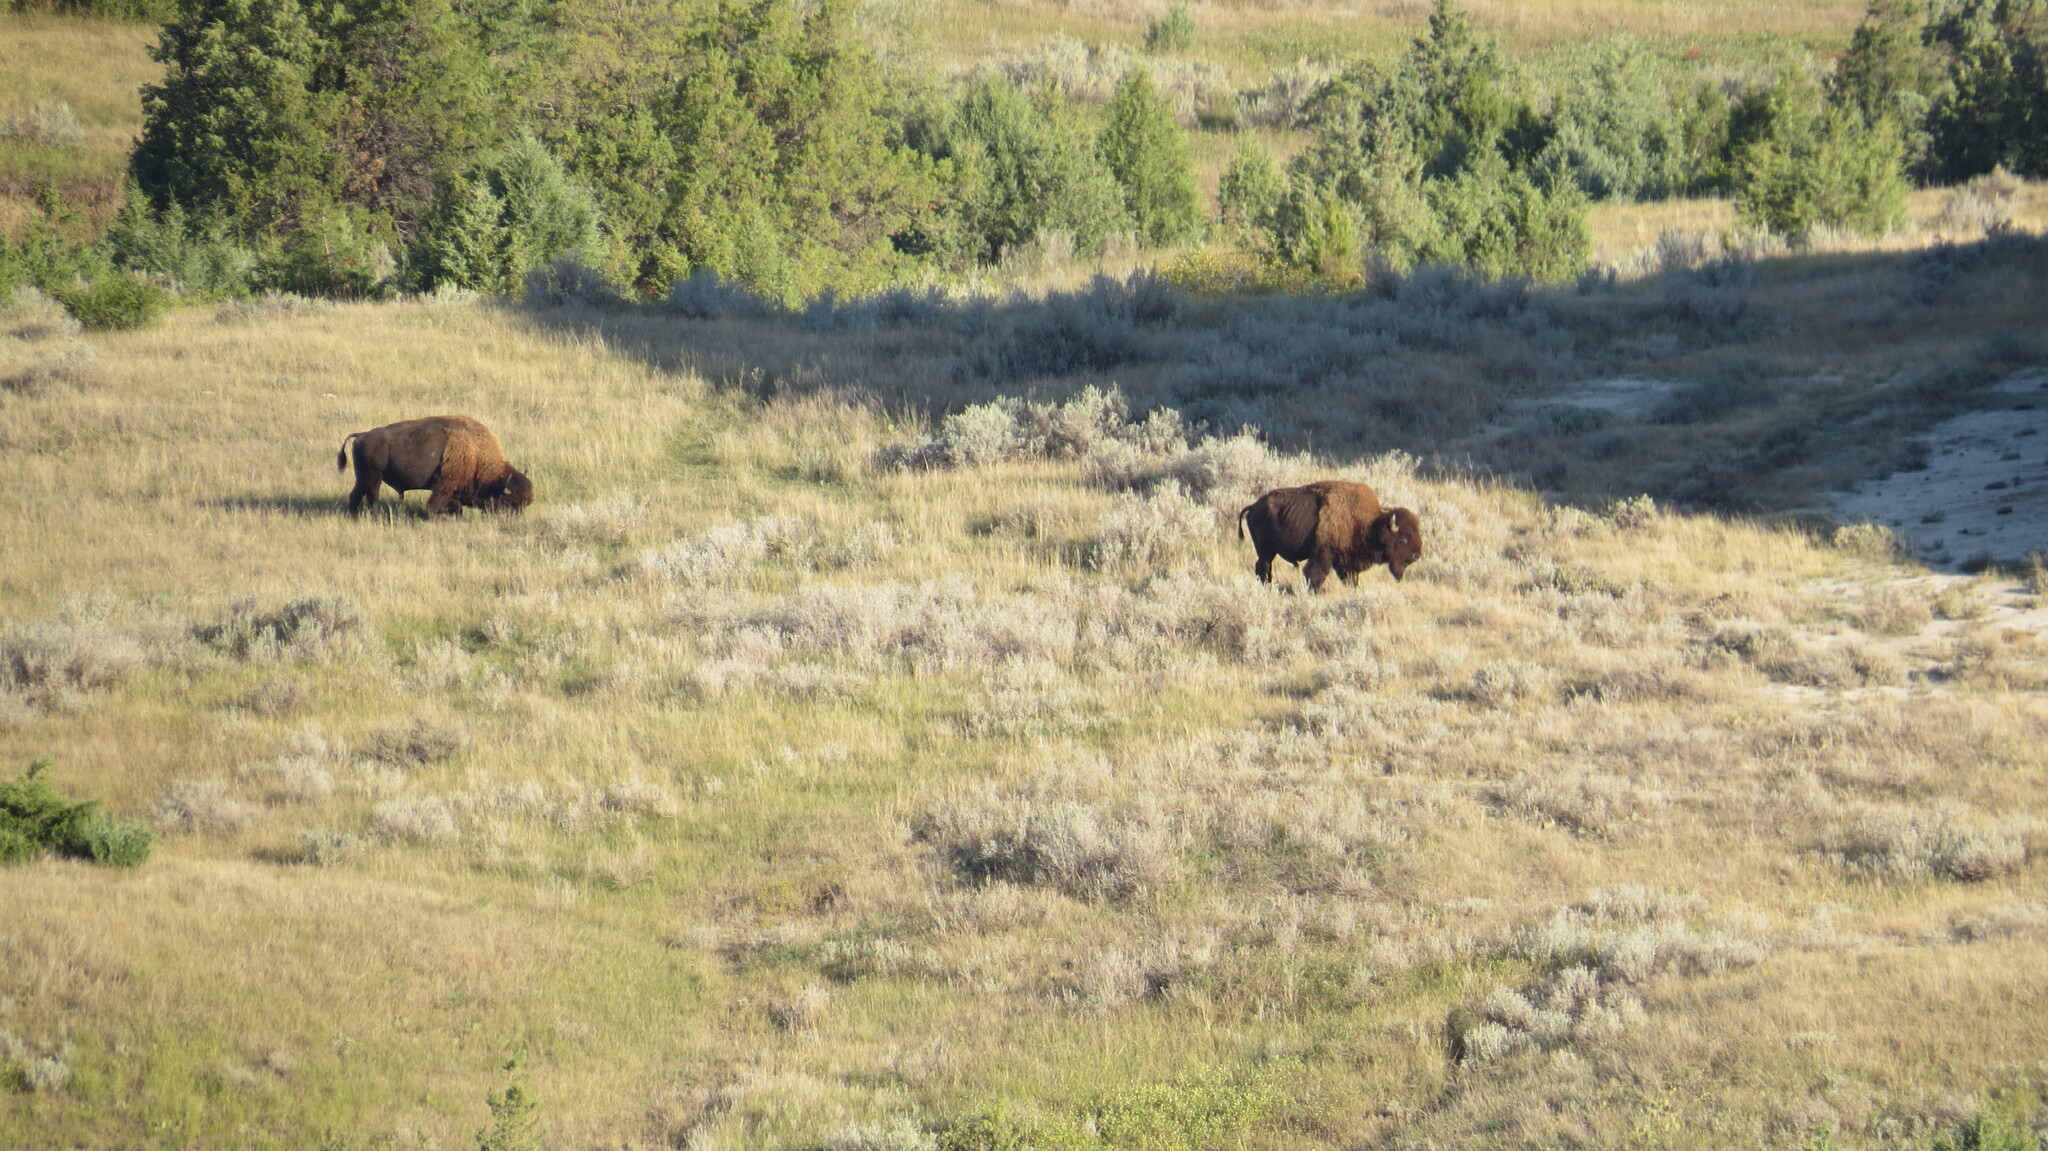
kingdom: Animalia
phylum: Chordata
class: Mammalia
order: Artiodactyla
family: Bovidae
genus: Bison
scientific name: Bison bison
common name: American bison
